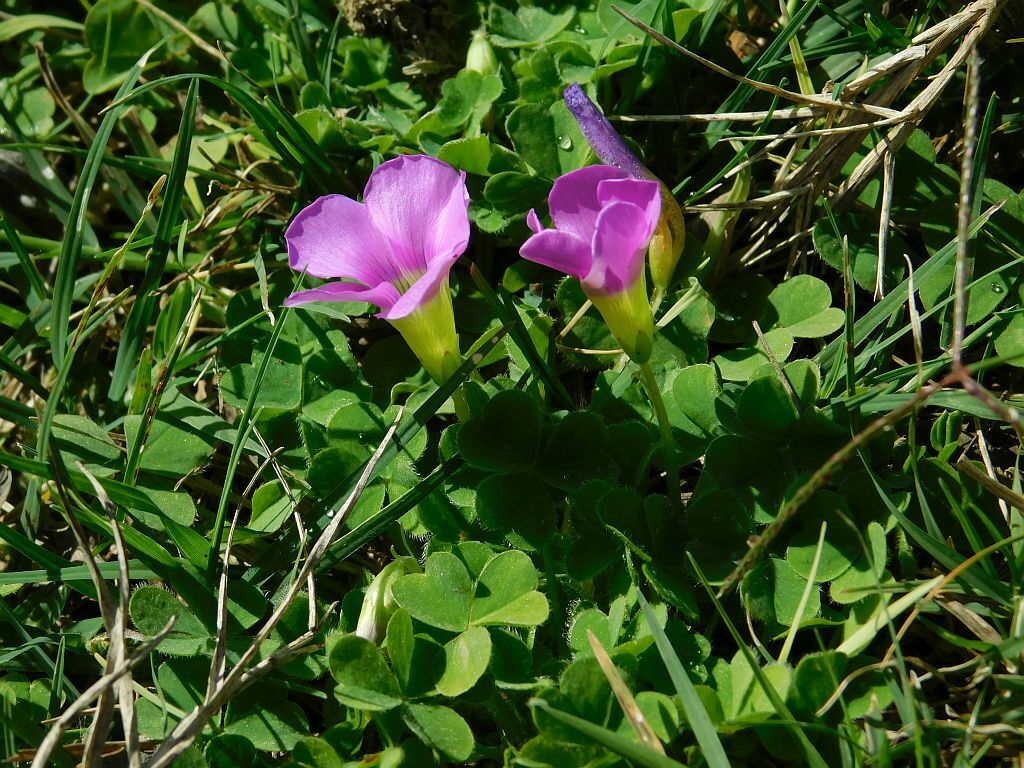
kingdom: Plantae
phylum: Tracheophyta
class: Magnoliopsida
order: Oxalidales
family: Oxalidaceae
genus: Oxalis
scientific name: Oxalis zeekoevleyensis
